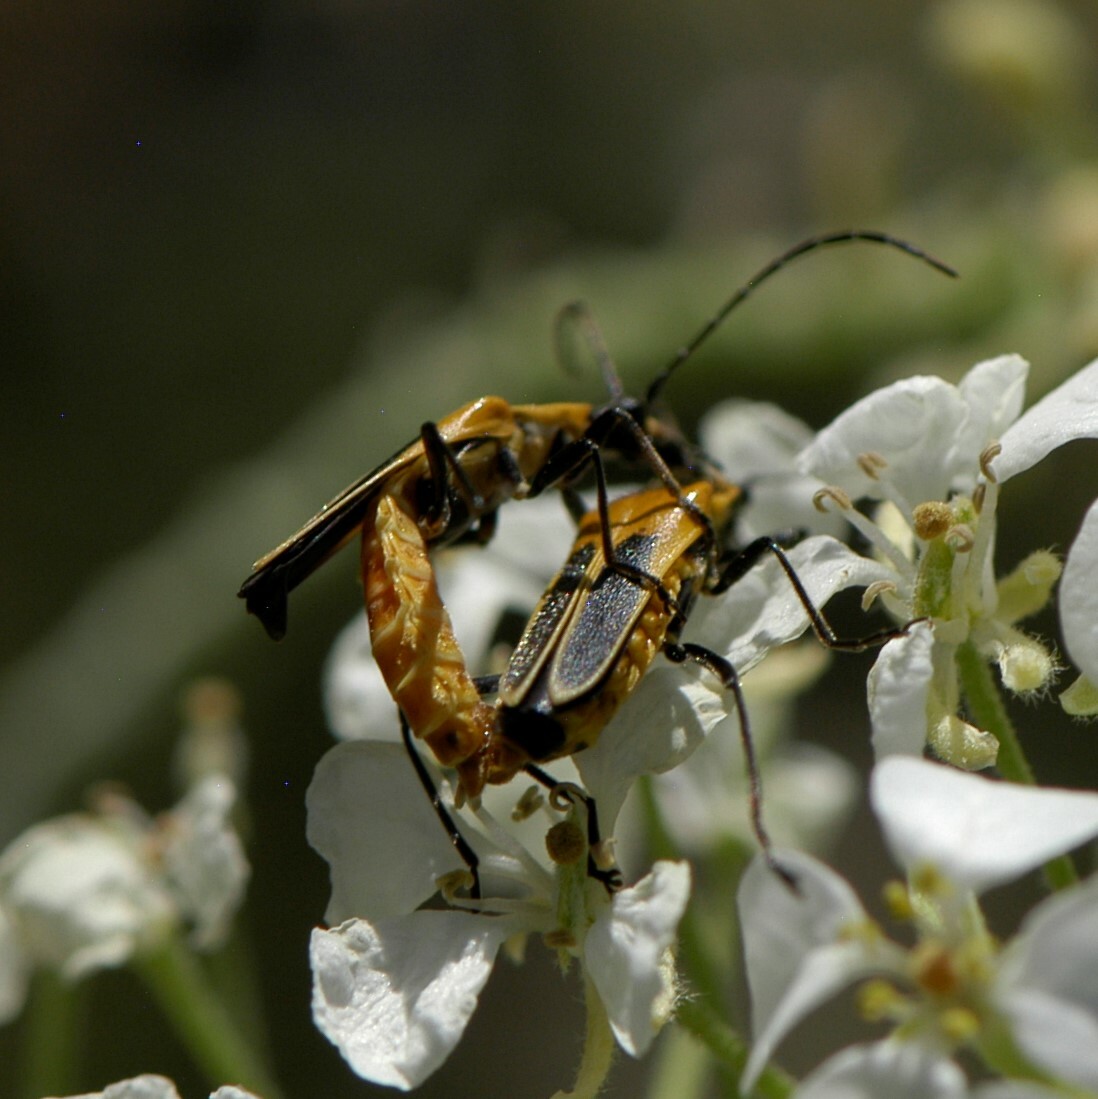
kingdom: Animalia
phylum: Arthropoda
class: Insecta
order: Coleoptera
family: Cantharidae
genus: Chauliognathus
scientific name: Chauliognathus lewisi
